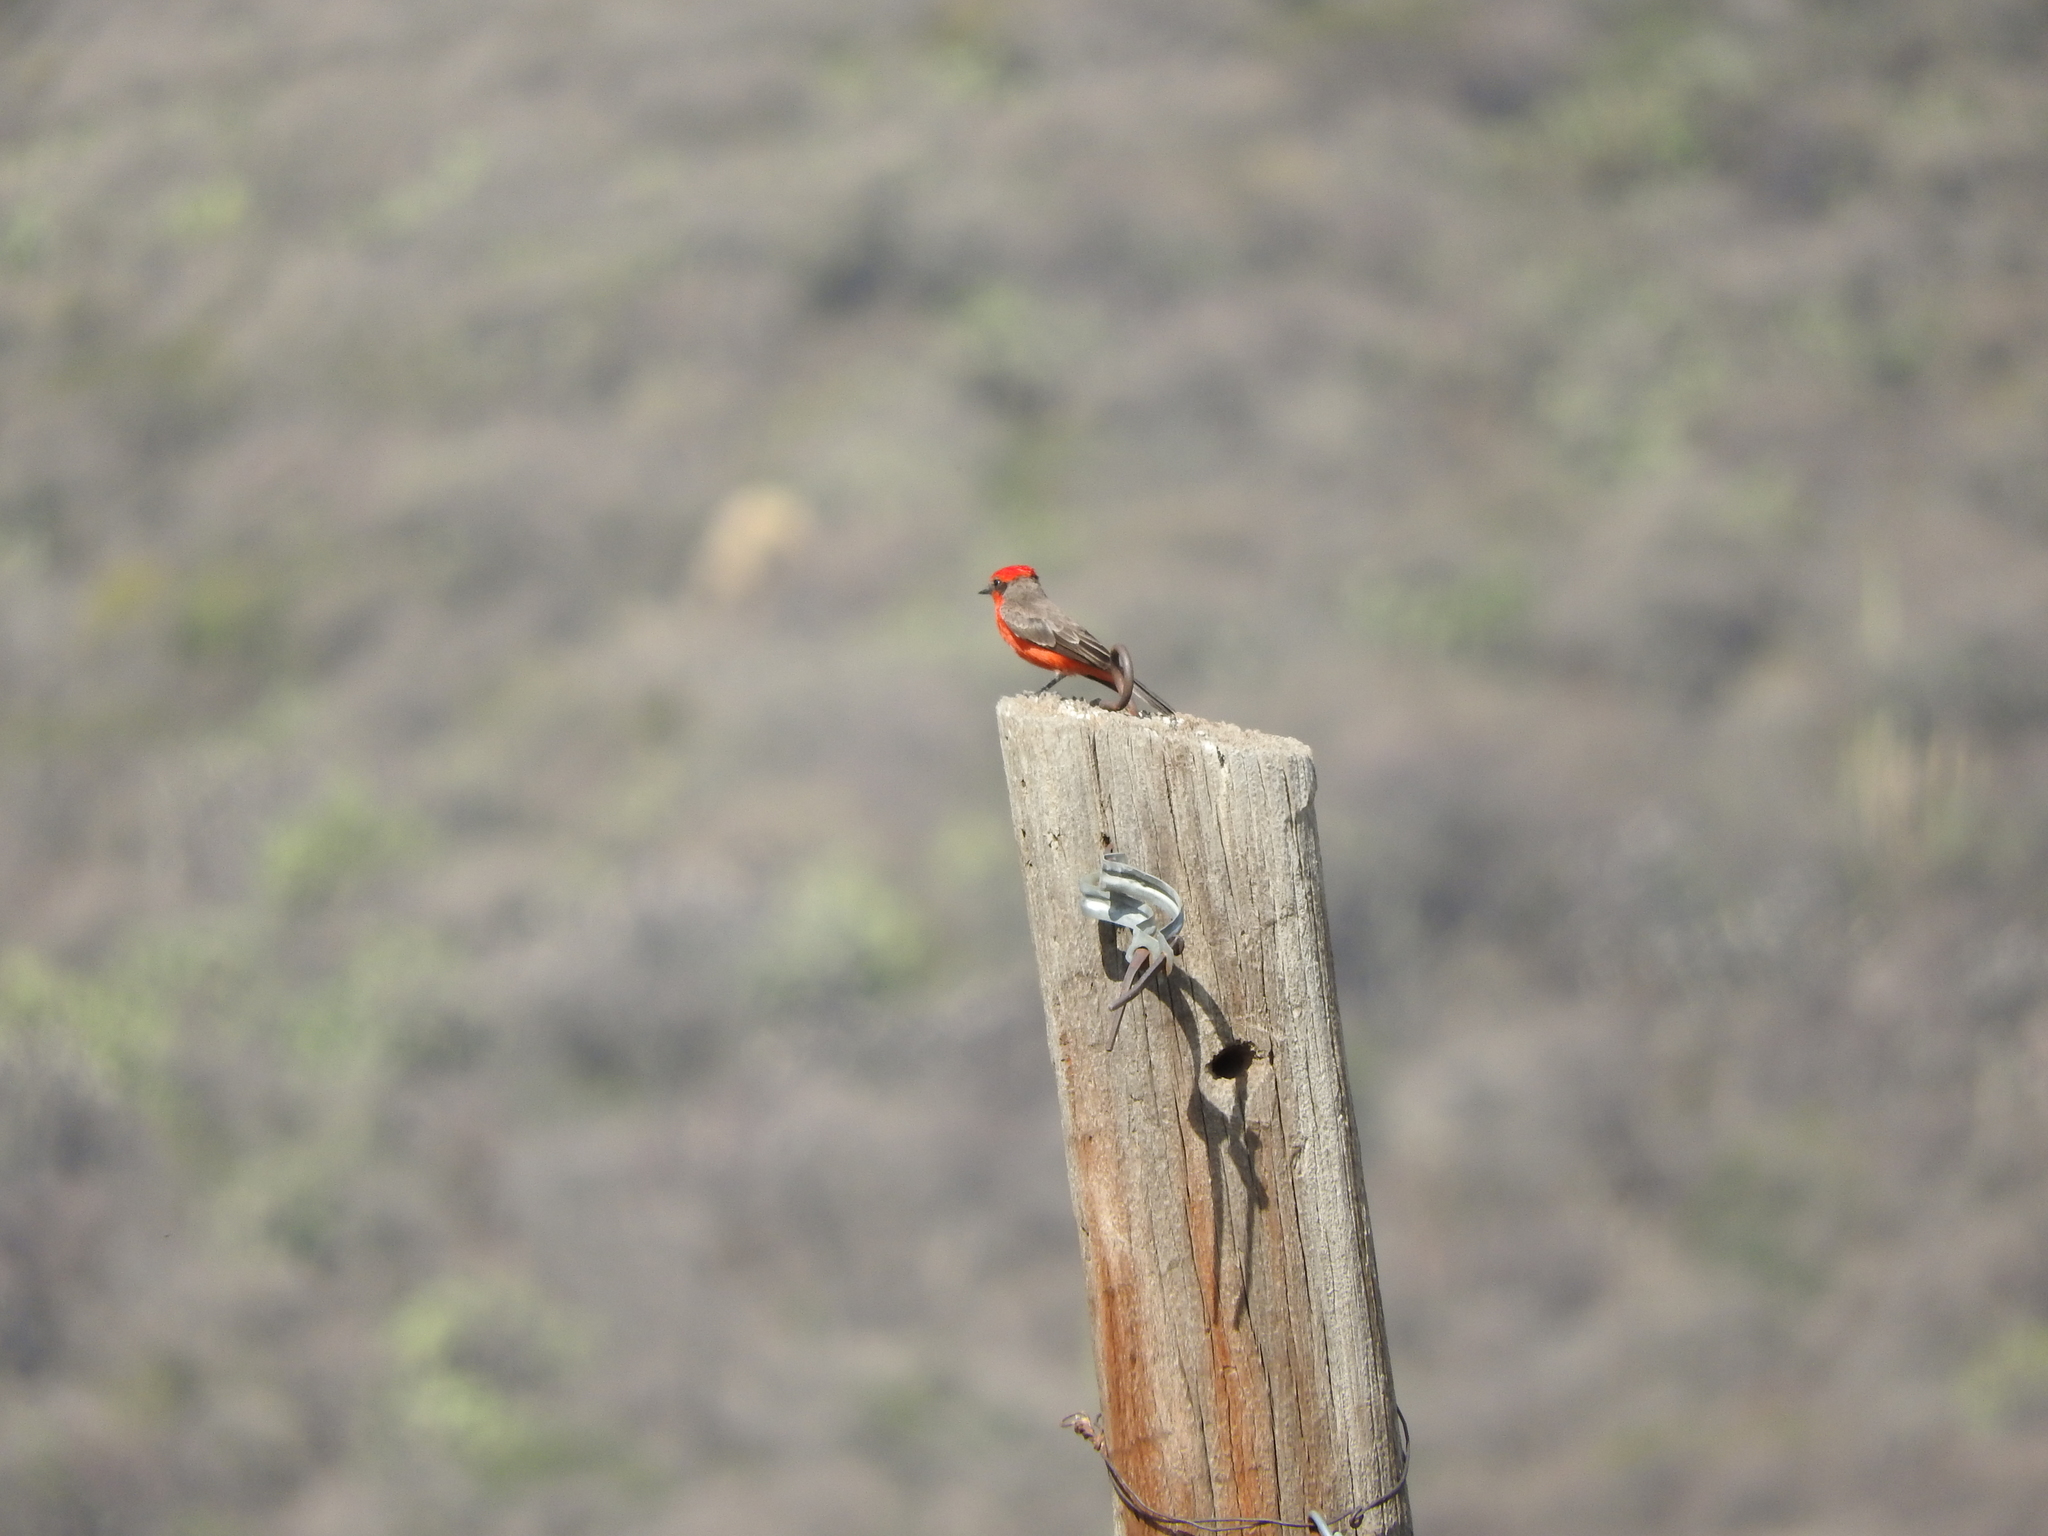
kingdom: Animalia
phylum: Chordata
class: Aves
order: Passeriformes
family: Tyrannidae
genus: Pyrocephalus
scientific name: Pyrocephalus rubinus
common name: Vermilion flycatcher
